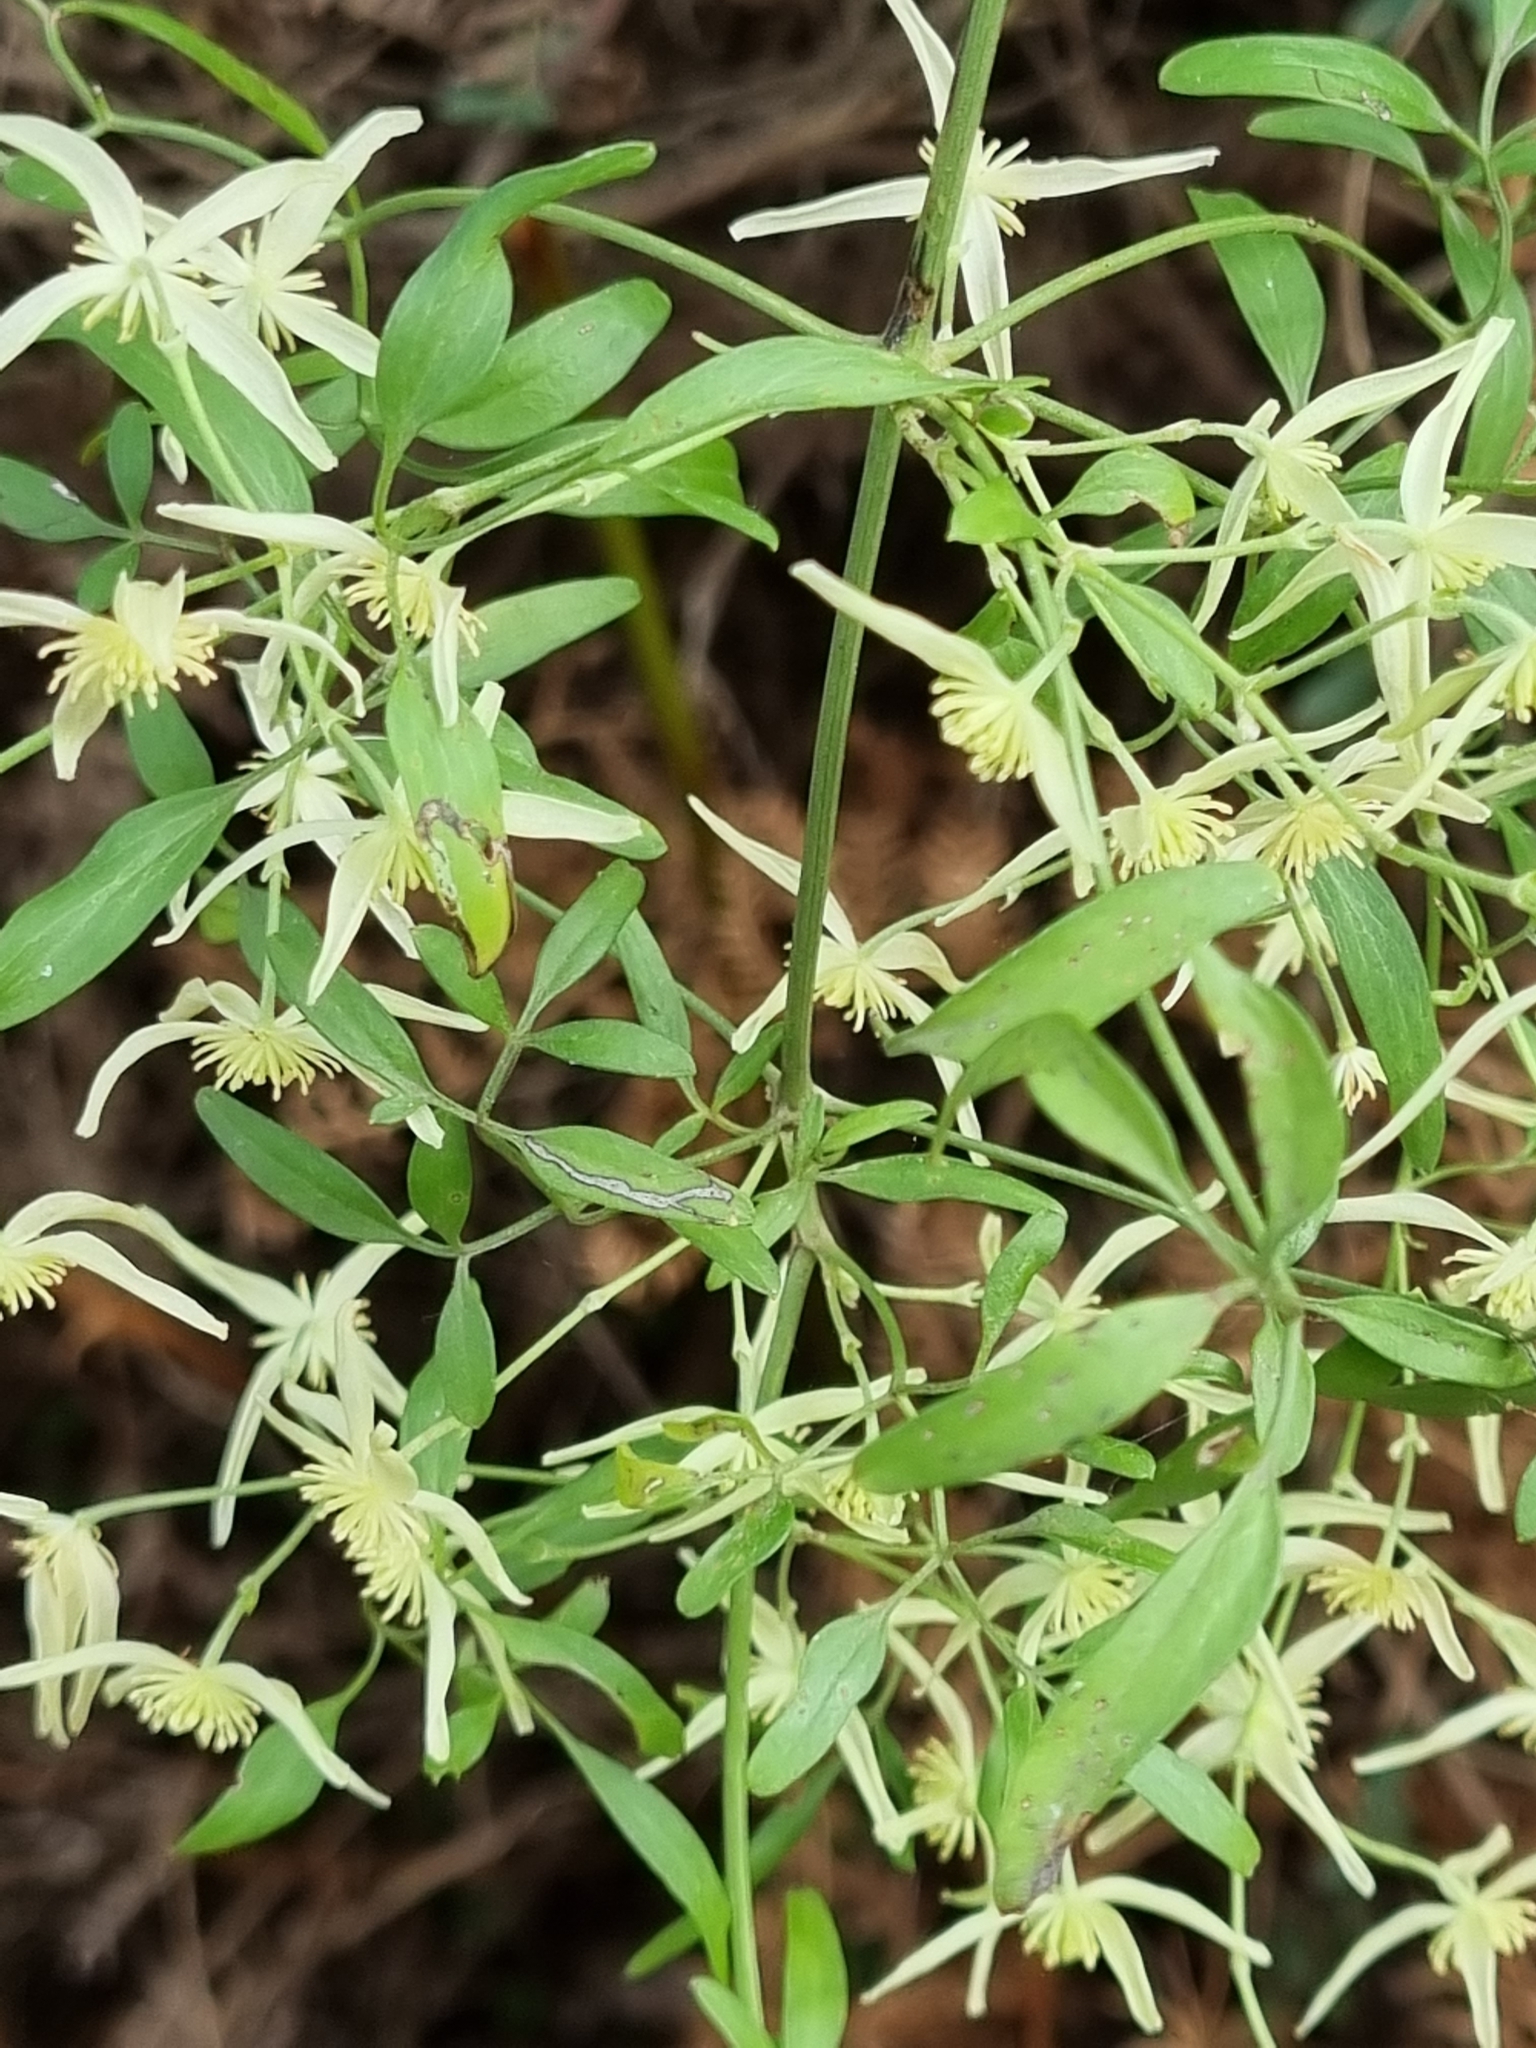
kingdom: Plantae
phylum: Tracheophyta
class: Magnoliopsida
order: Ranunculales
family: Ranunculaceae
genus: Clematis
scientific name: Clematis microphylla
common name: Headachevine
